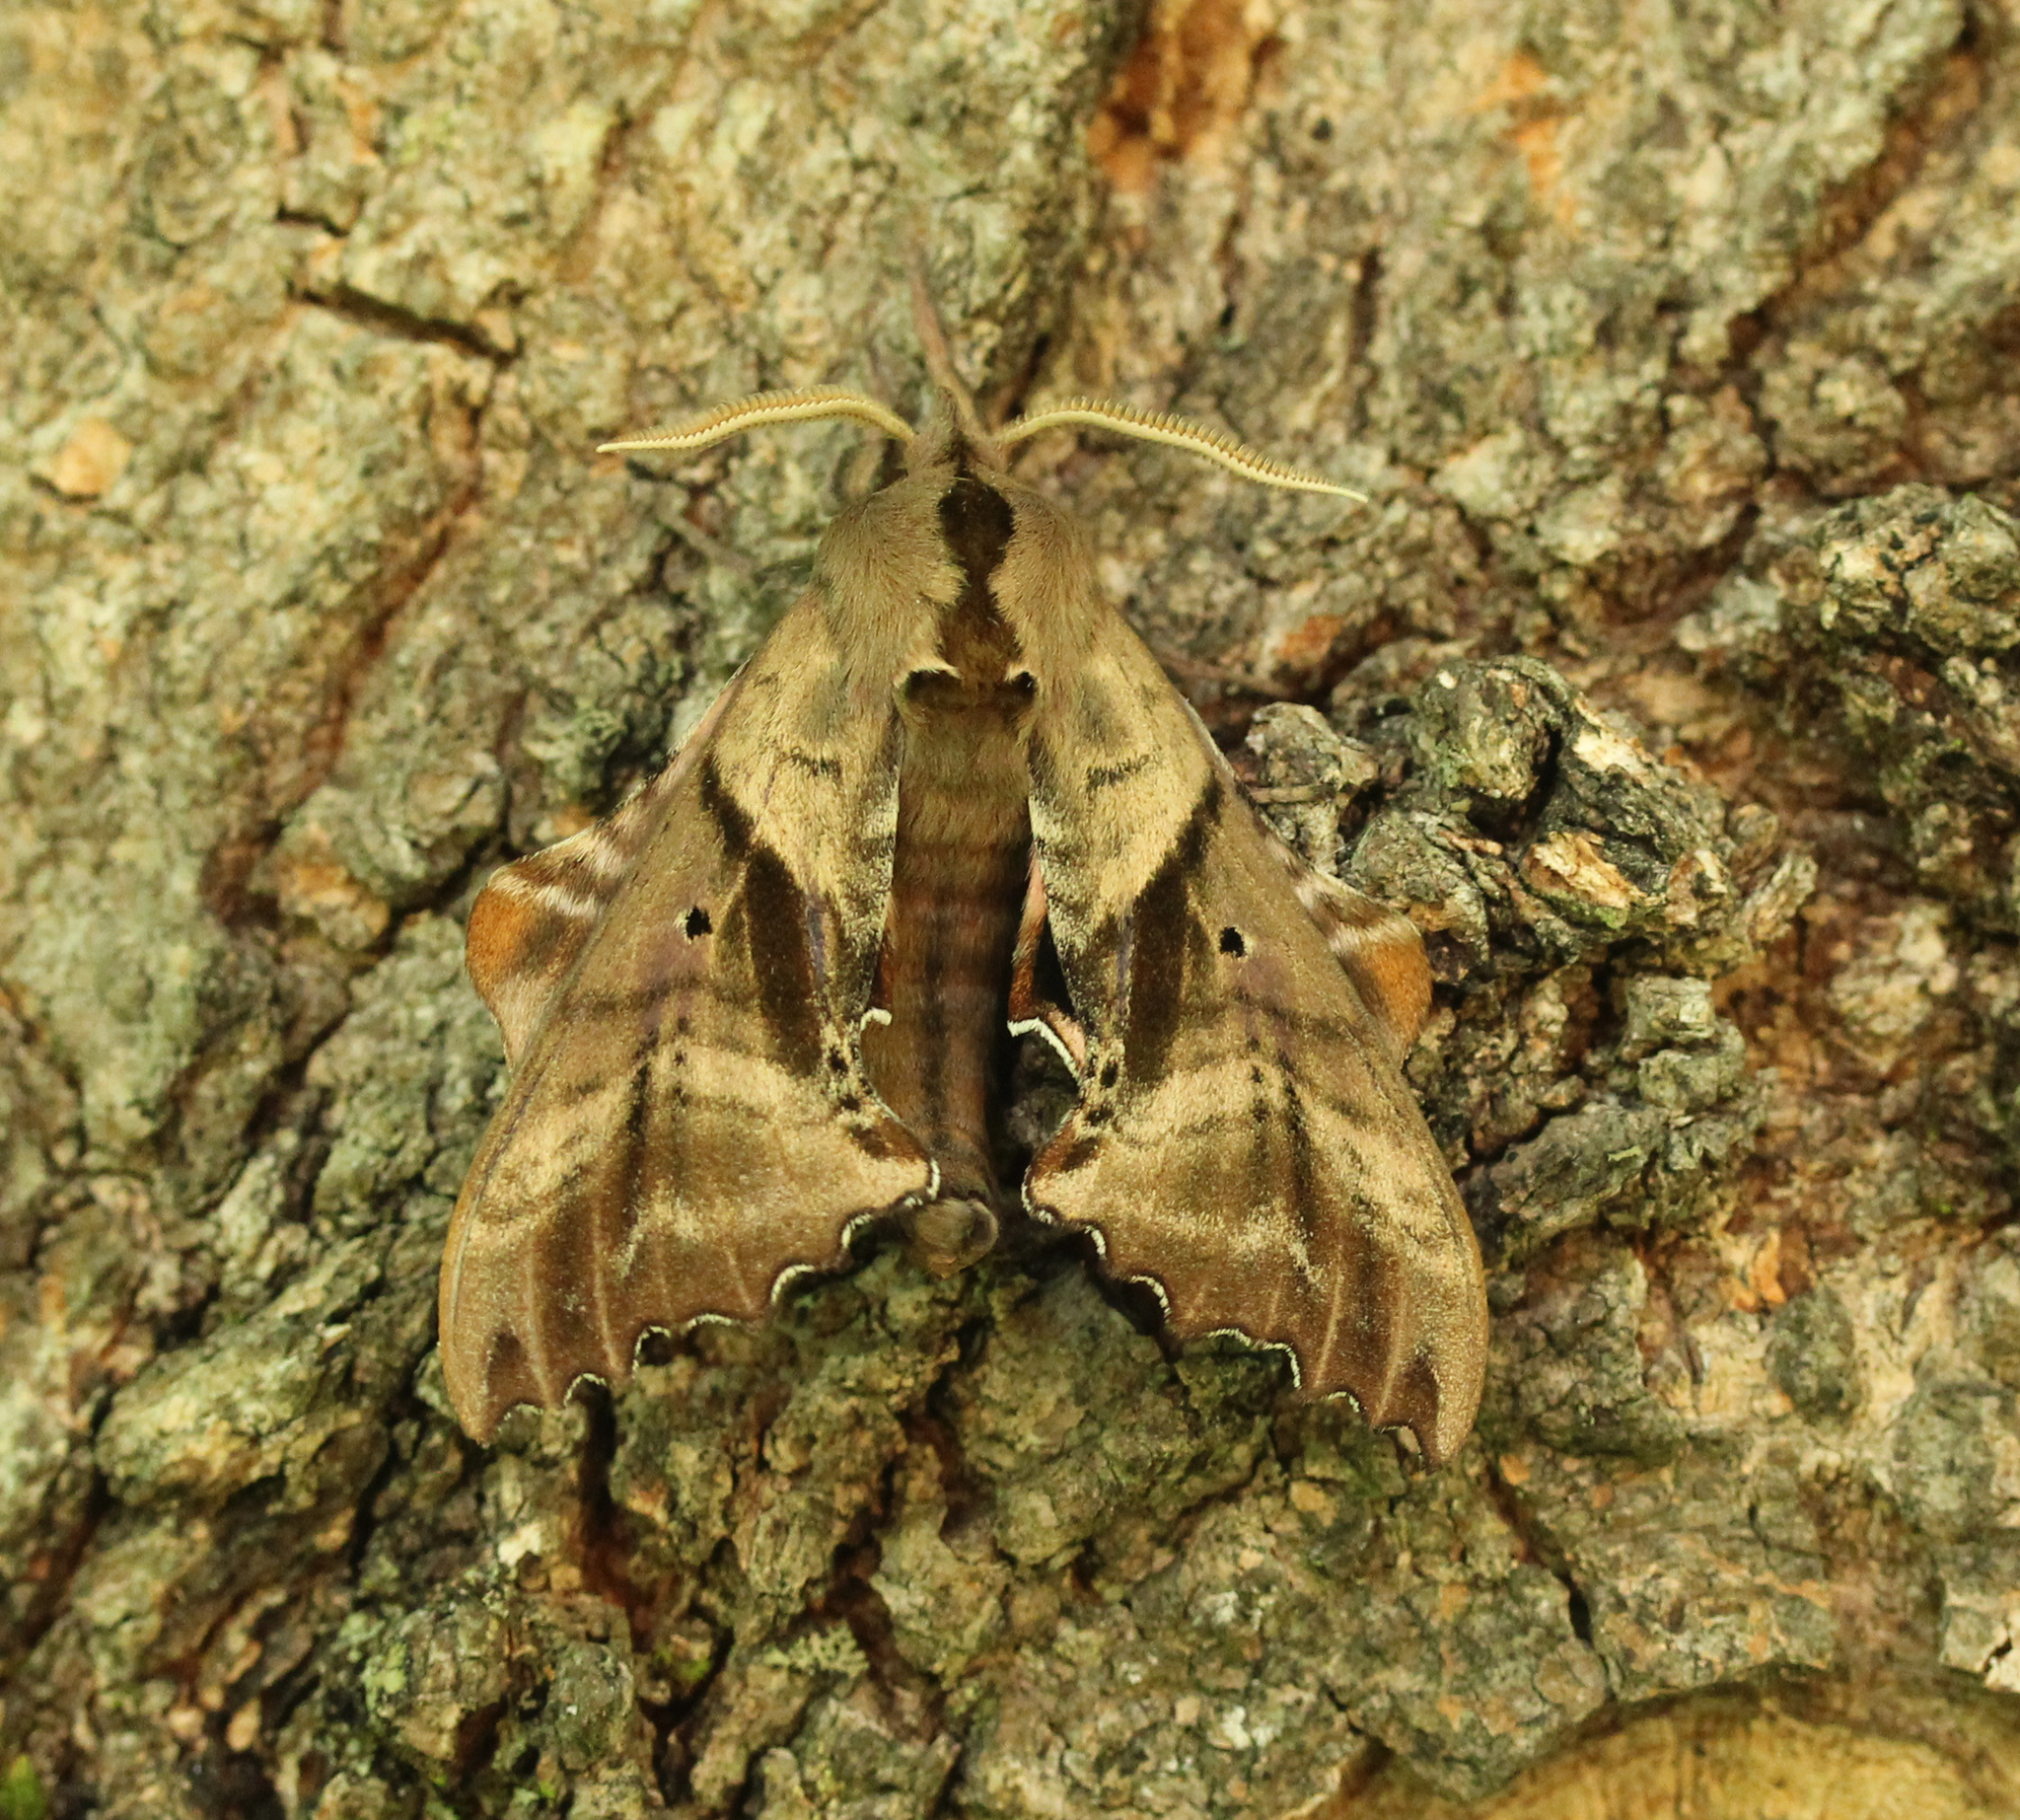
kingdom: Animalia
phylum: Arthropoda
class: Insecta
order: Lepidoptera
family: Sphingidae
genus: Paonias
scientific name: Paonias excaecata
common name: Blind-eyed sphinx
